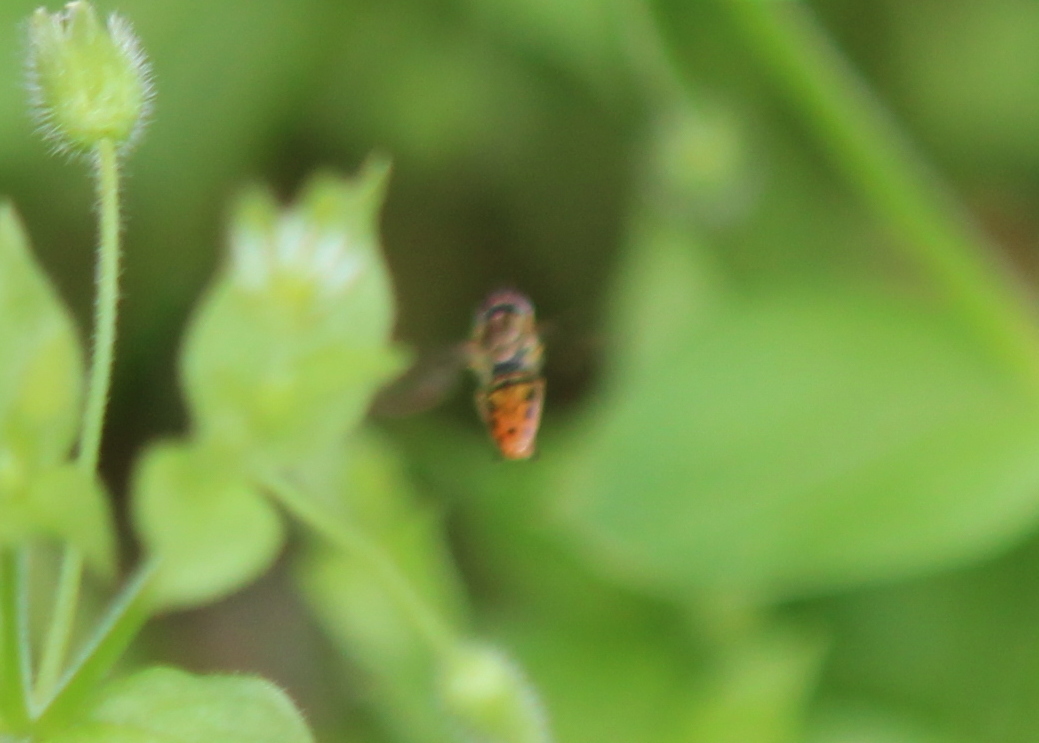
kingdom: Animalia
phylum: Arthropoda
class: Insecta
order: Diptera
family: Syrphidae
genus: Toxomerus
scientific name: Toxomerus marginatus
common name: Syrphid fly
